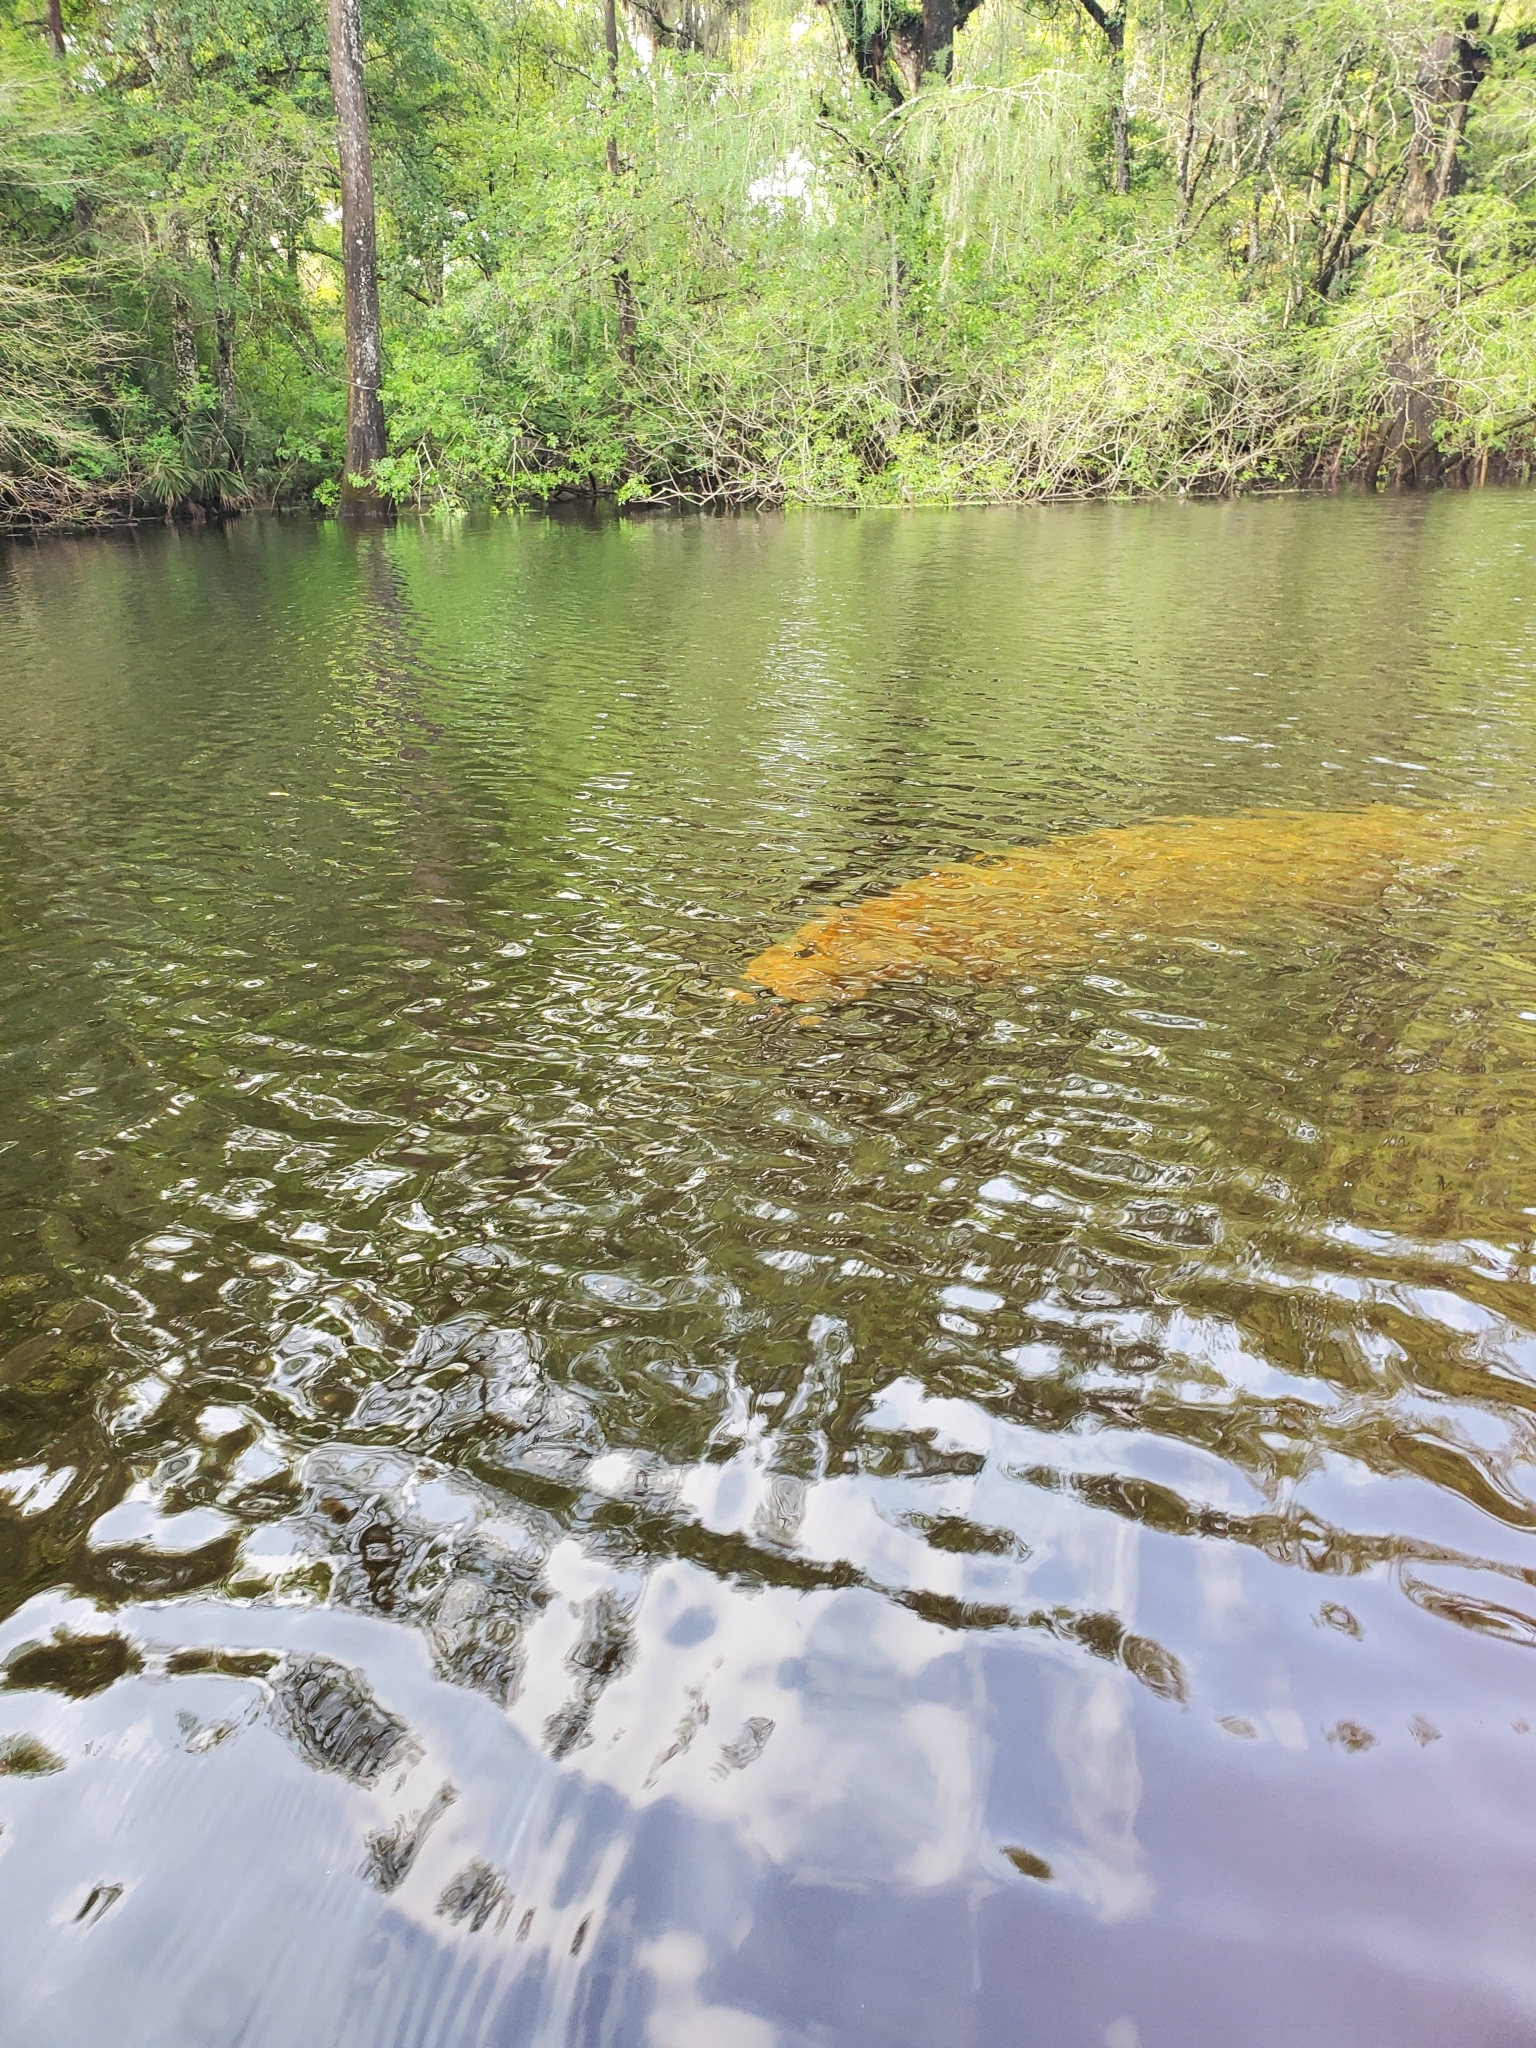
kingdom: Animalia
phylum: Chordata
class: Mammalia
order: Sirenia
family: Trichechidae
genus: Trichechus
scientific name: Trichechus manatus
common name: West indian manatee
